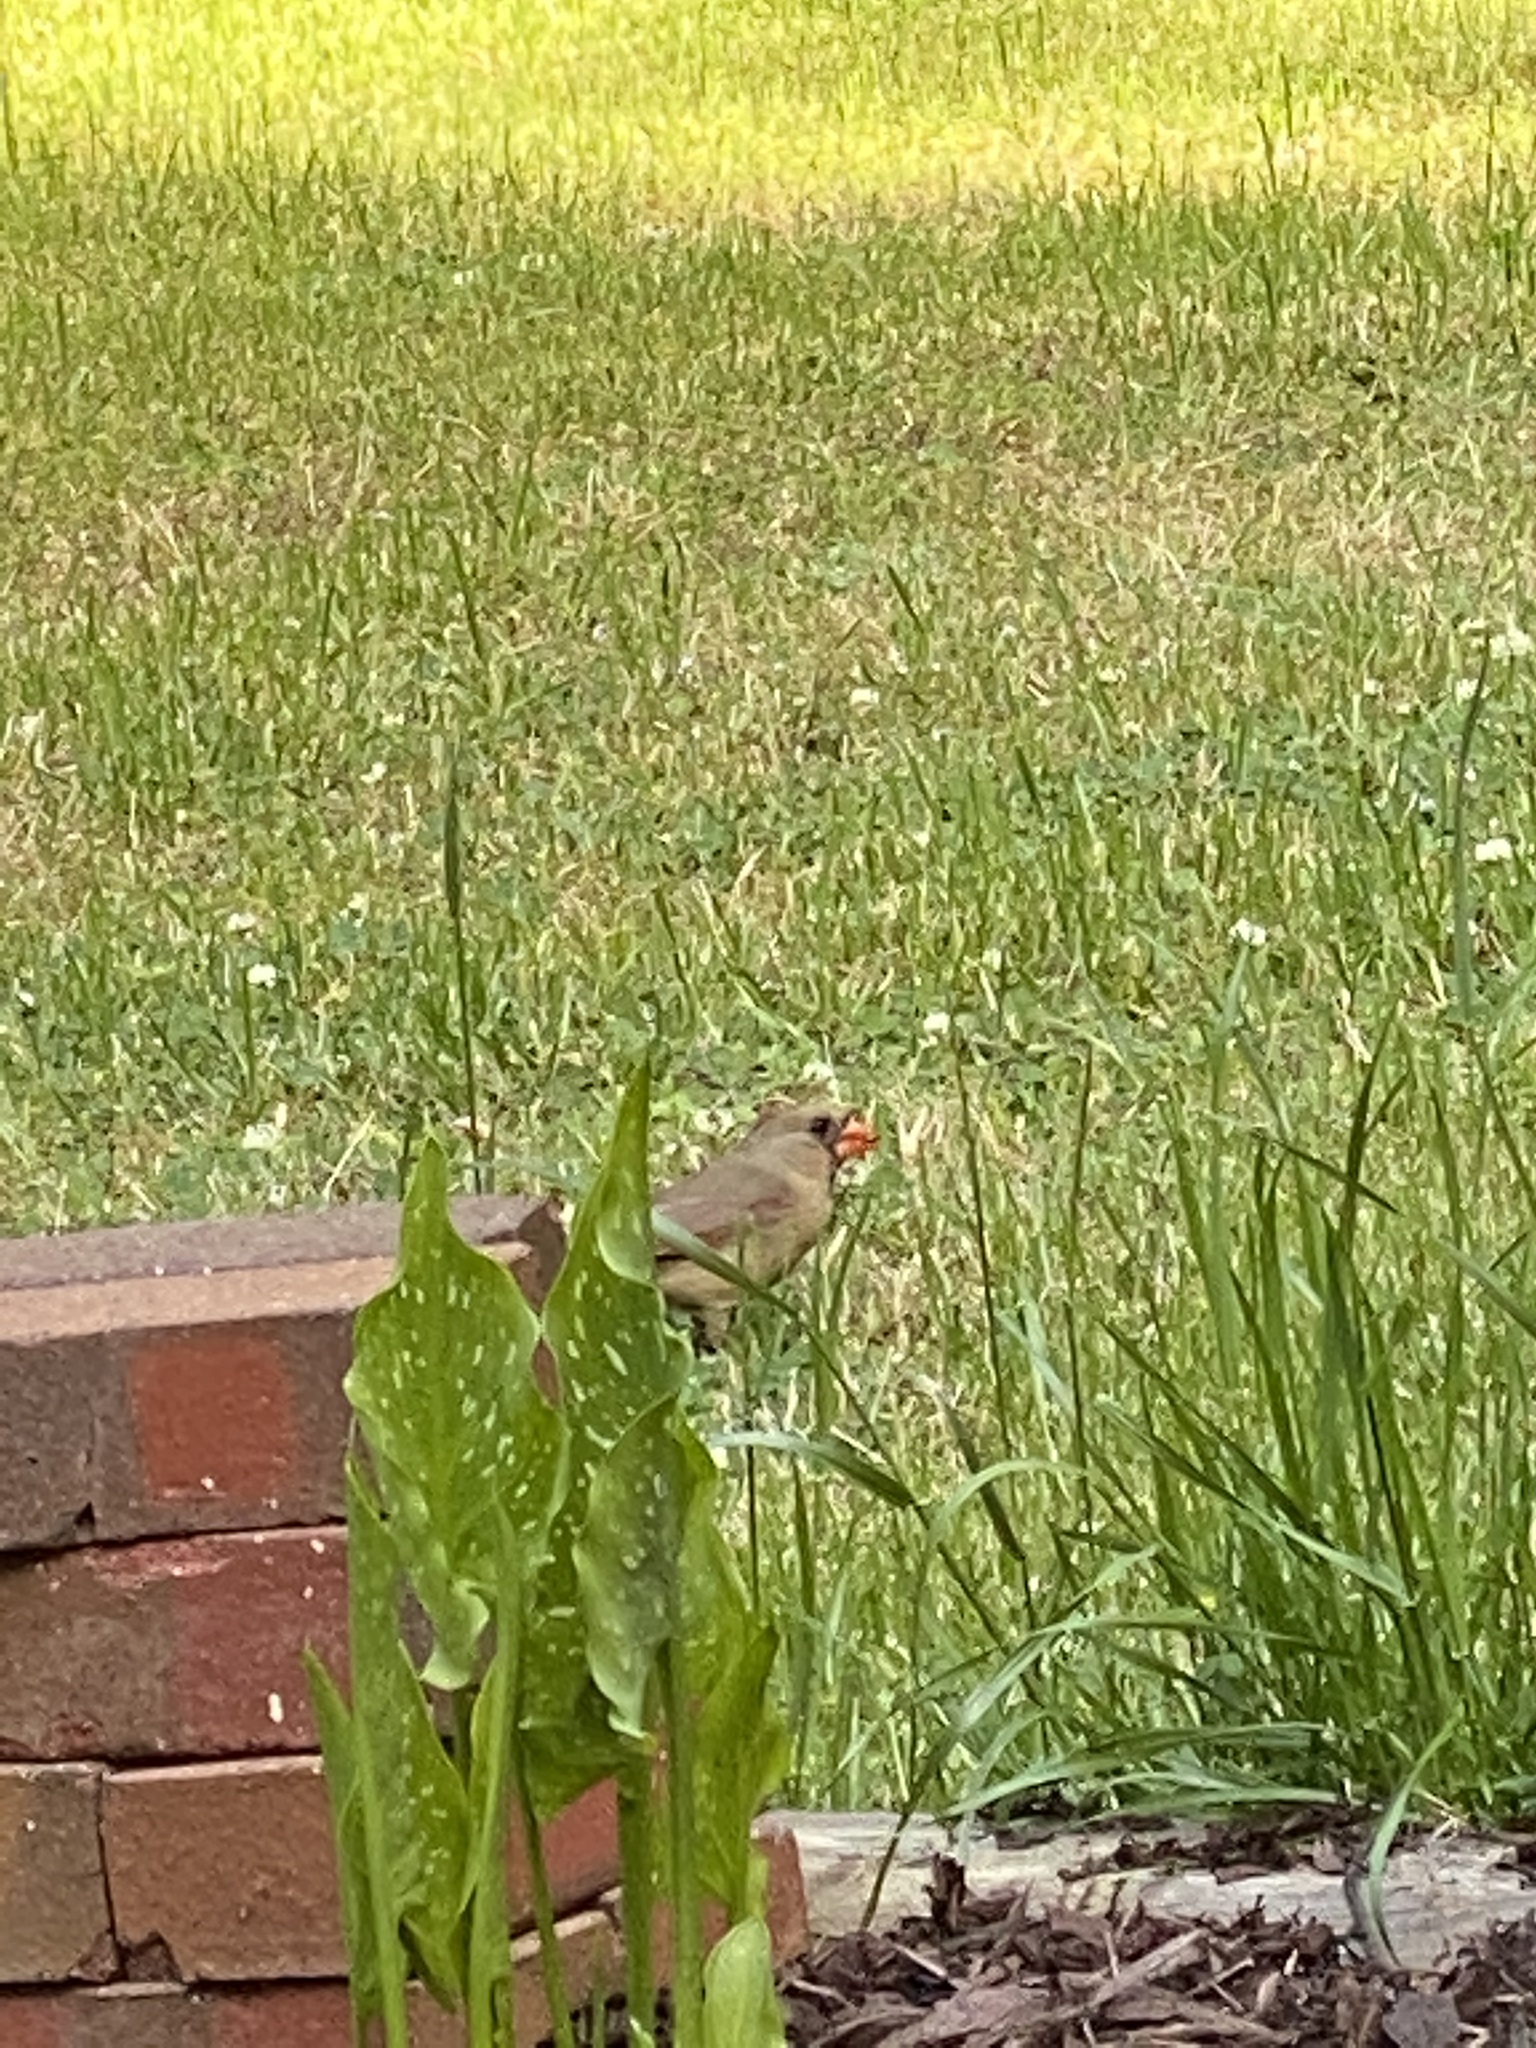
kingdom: Animalia
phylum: Chordata
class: Aves
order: Passeriformes
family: Cardinalidae
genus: Cardinalis
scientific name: Cardinalis cardinalis
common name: Northern cardinal
